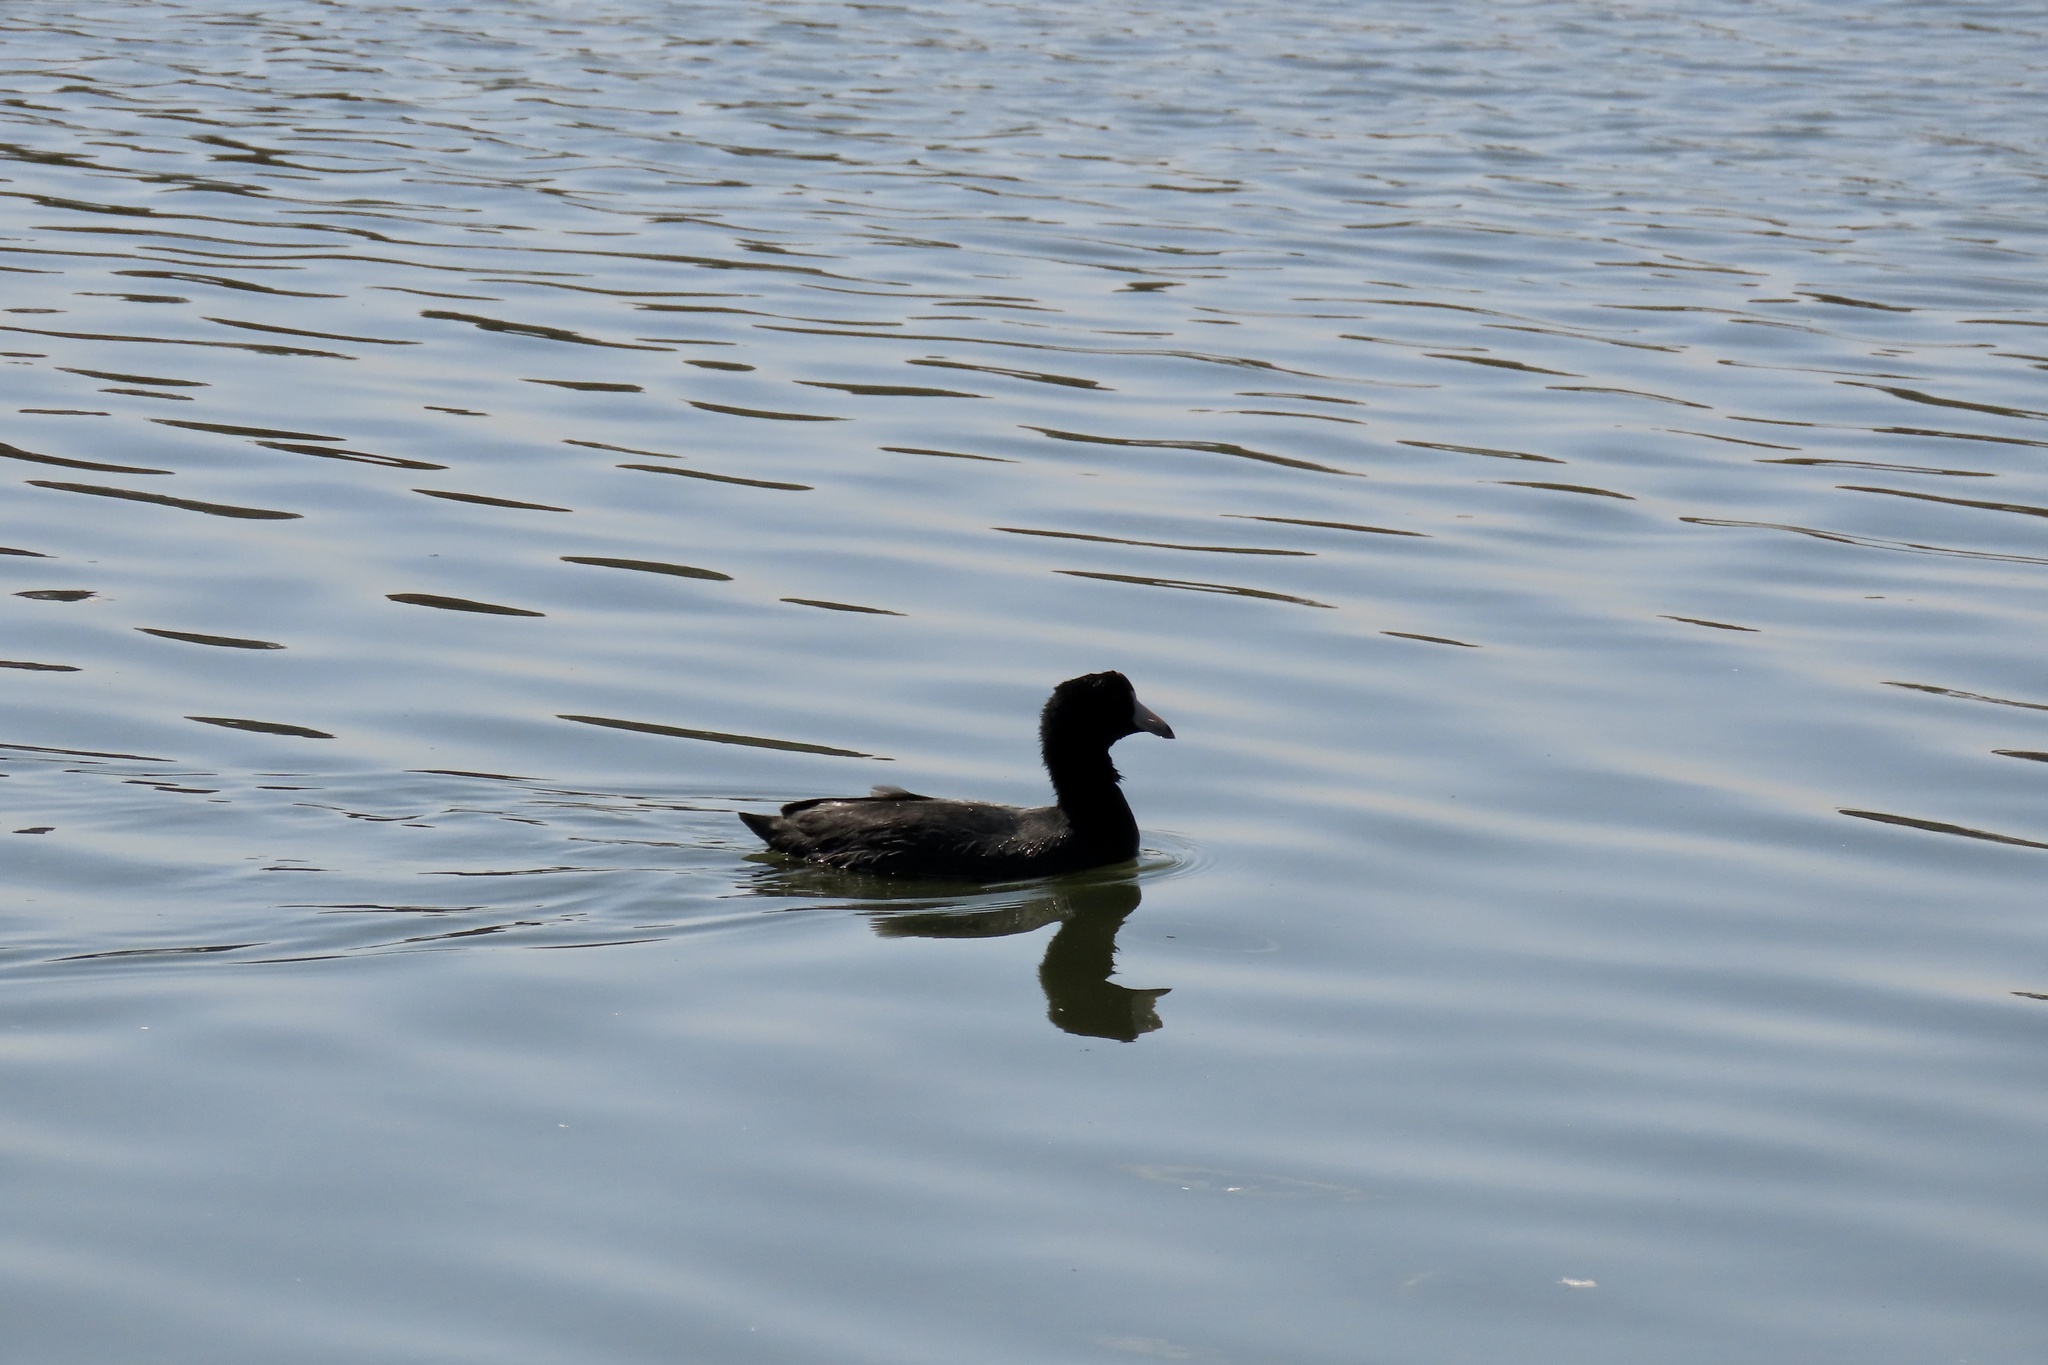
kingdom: Animalia
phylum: Chordata
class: Aves
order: Gruiformes
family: Rallidae
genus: Fulica
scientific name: Fulica americana
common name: American coot
